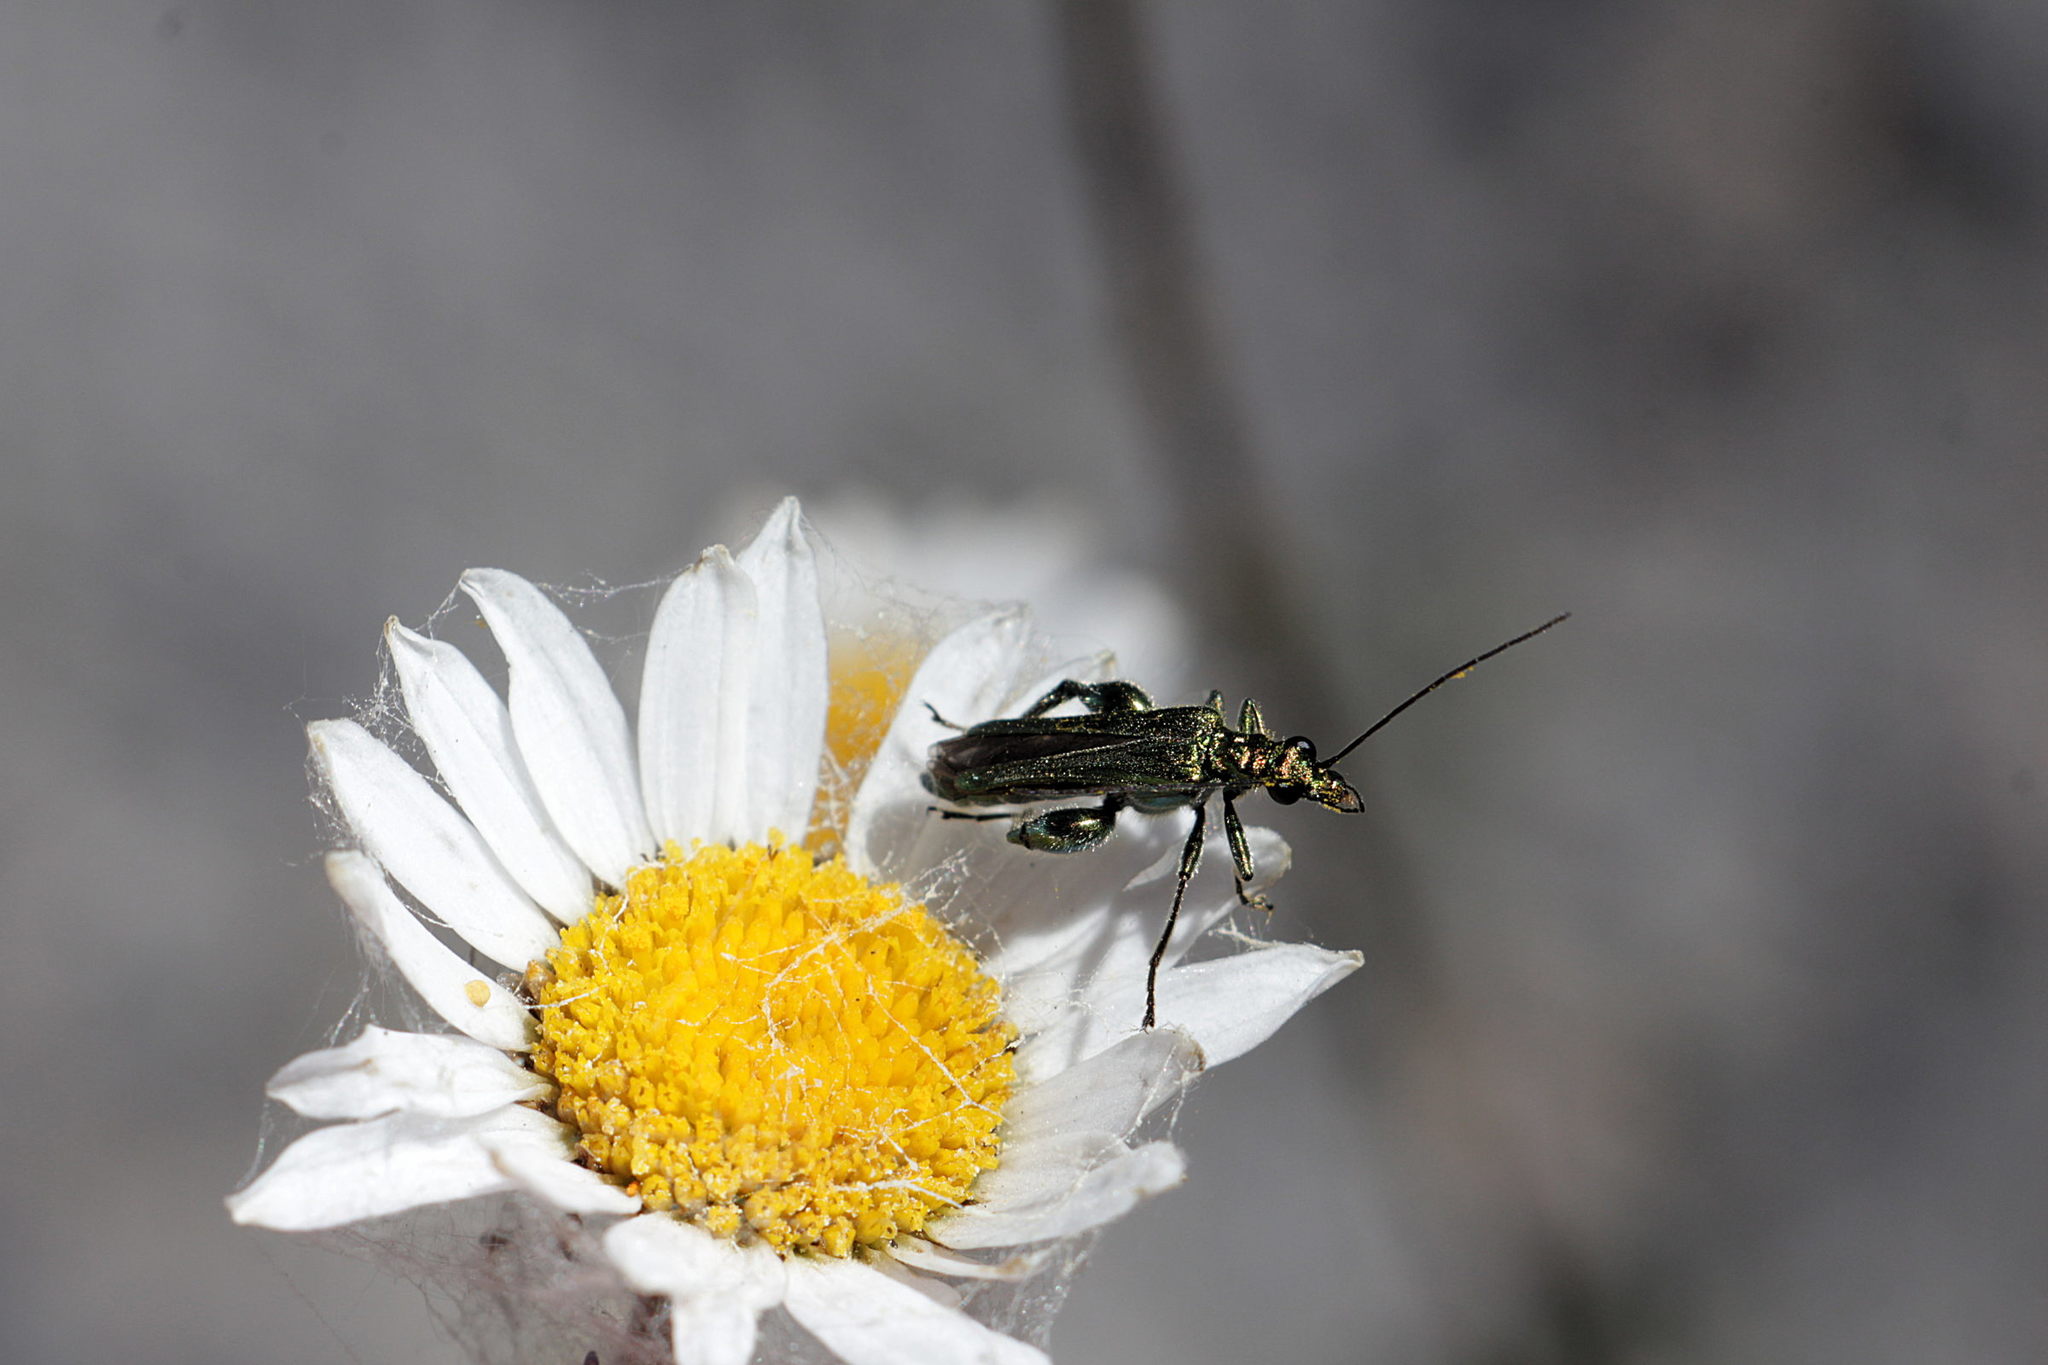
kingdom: Animalia
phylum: Arthropoda
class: Insecta
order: Coleoptera
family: Oedemeridae
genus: Oedemera
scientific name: Oedemera nobilis
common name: Swollen-thighed beetle
